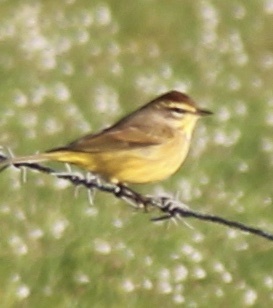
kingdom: Animalia
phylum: Chordata
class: Aves
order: Passeriformes
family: Parulidae
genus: Setophaga
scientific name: Setophaga palmarum
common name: Palm warbler
